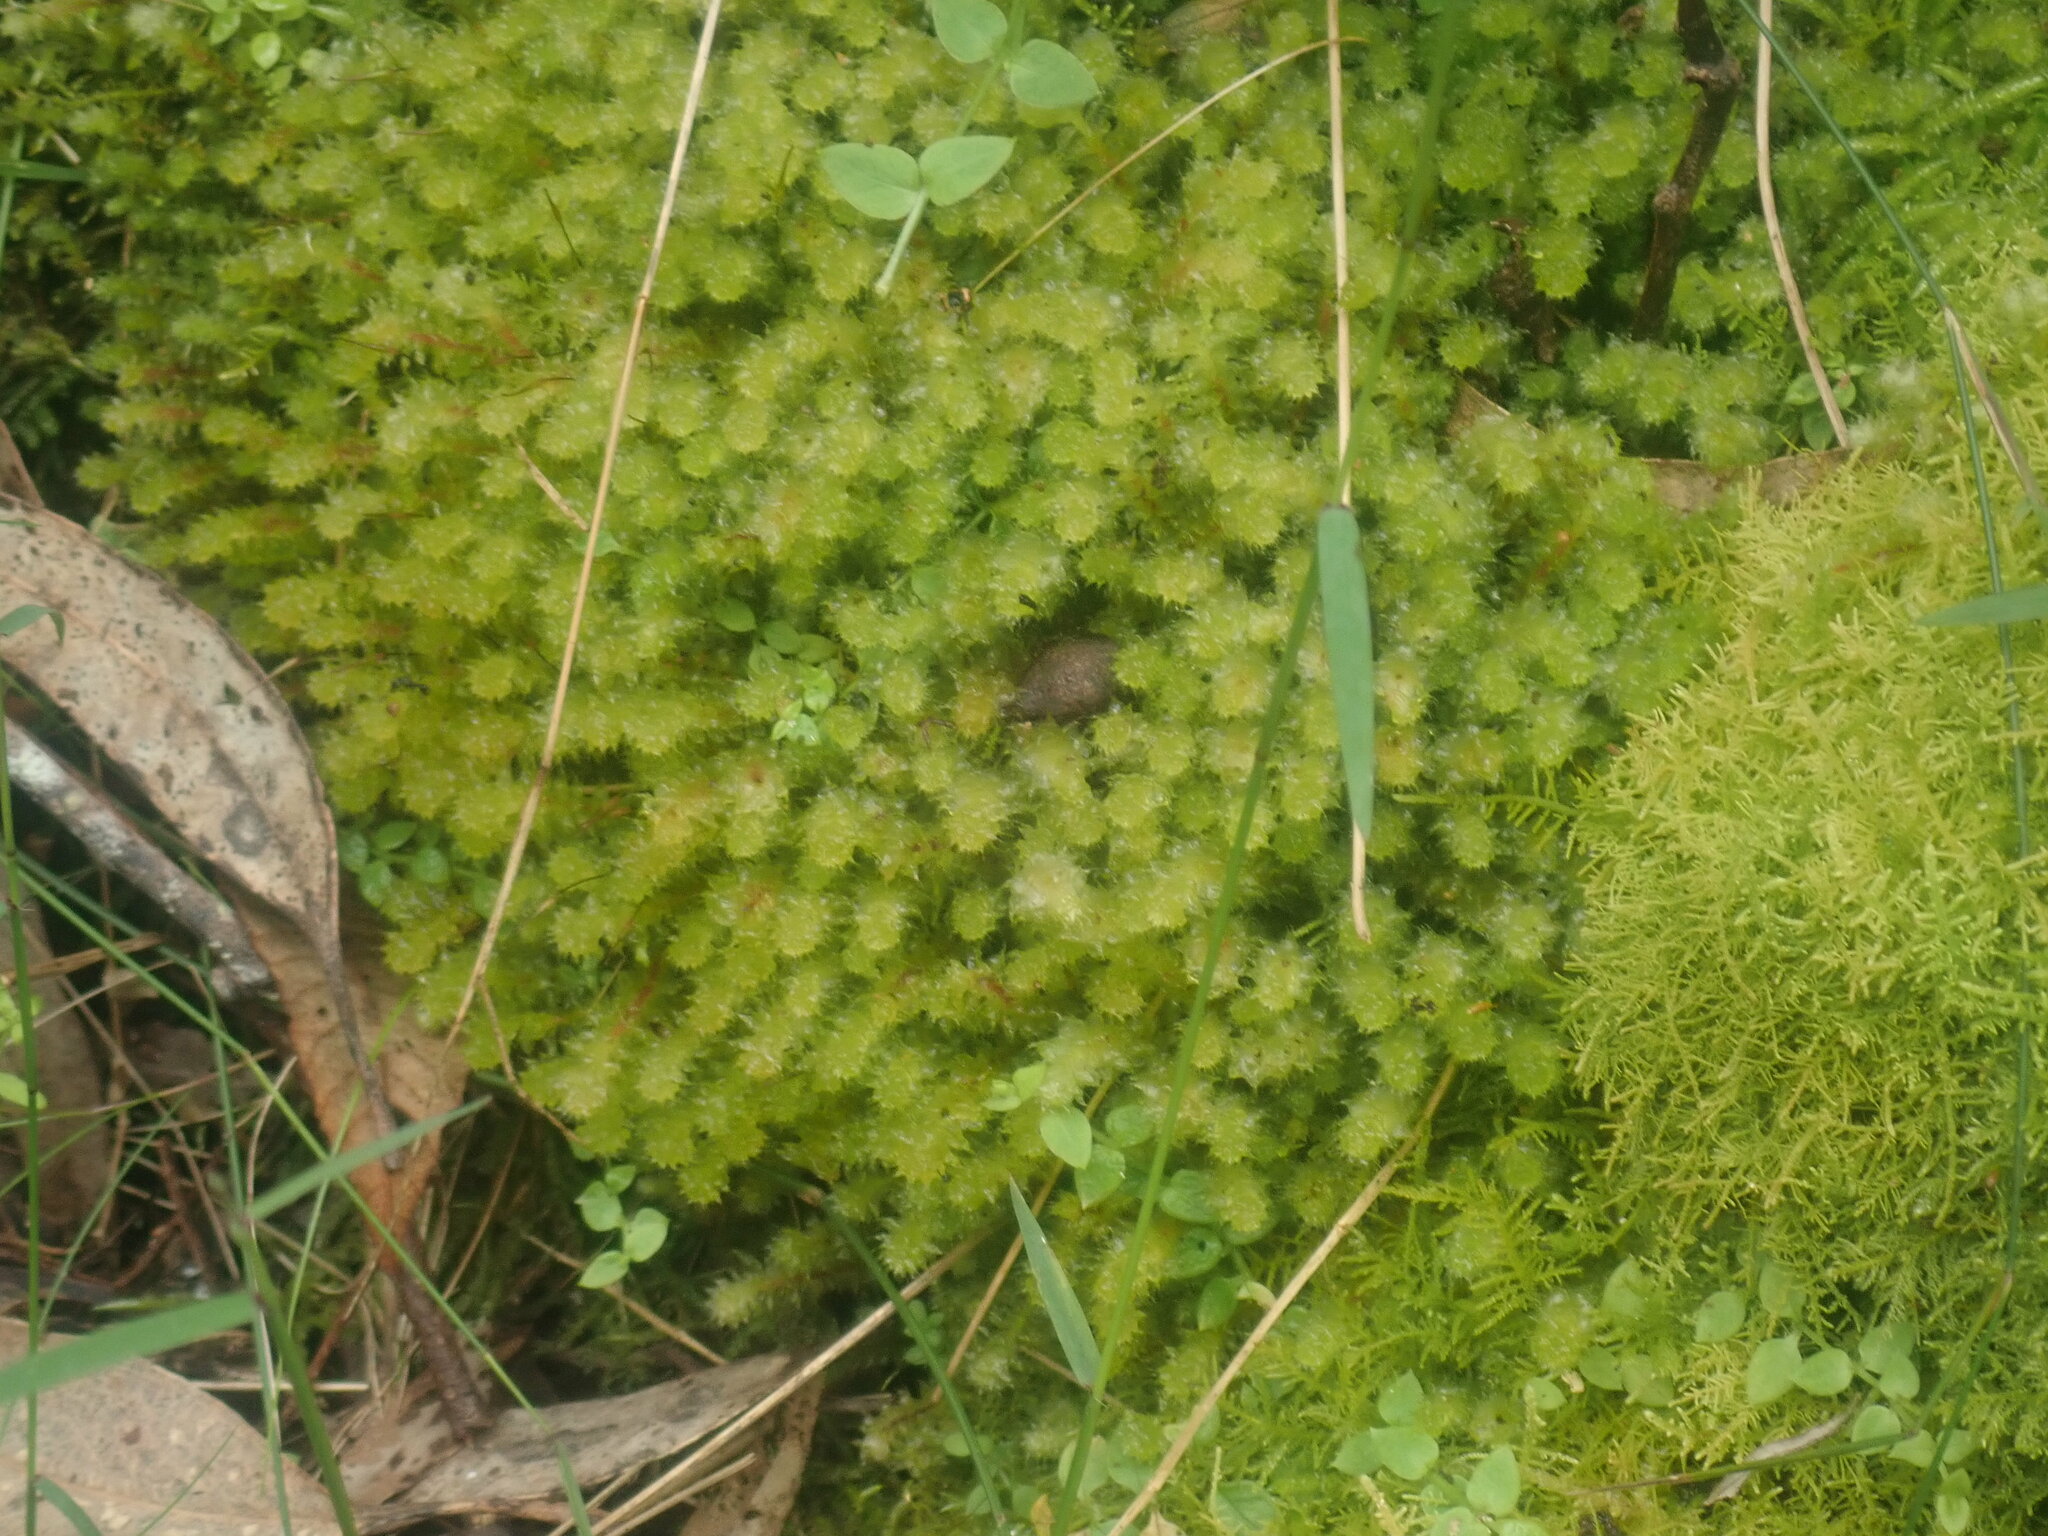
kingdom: Plantae
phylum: Bryophyta
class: Bryopsida
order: Ptychomniales
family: Ptychomniaceae
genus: Ptychomnion
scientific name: Ptychomnion aciculare
